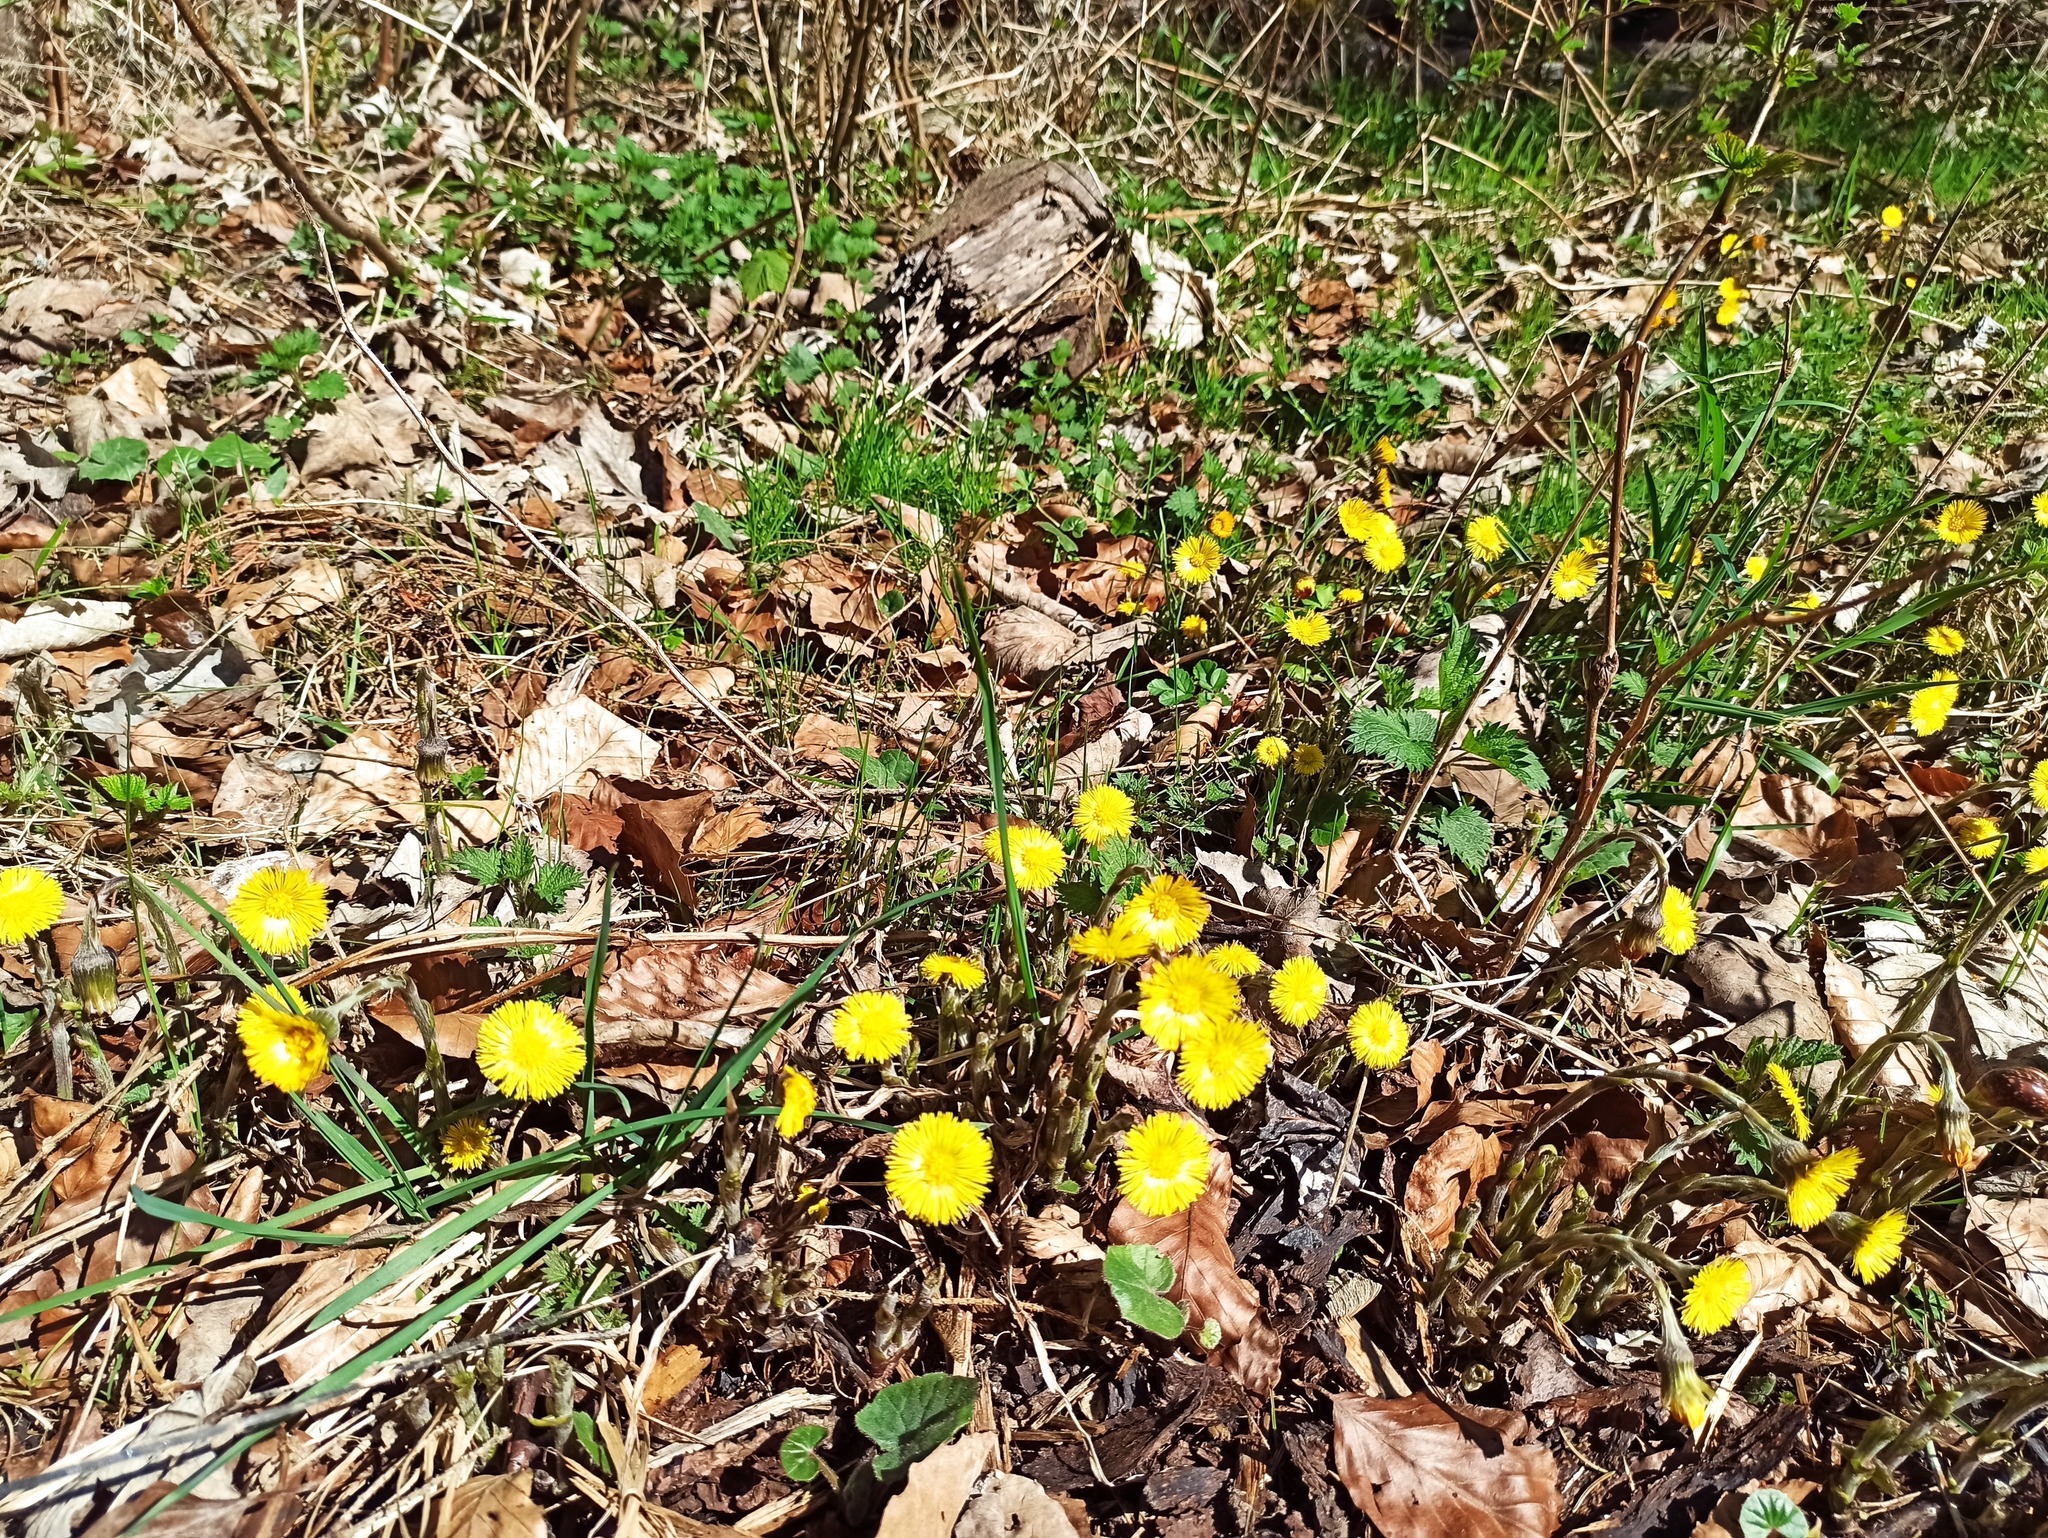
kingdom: Plantae
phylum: Tracheophyta
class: Magnoliopsida
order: Asterales
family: Asteraceae
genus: Tussilago
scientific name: Tussilago farfara
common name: Coltsfoot
